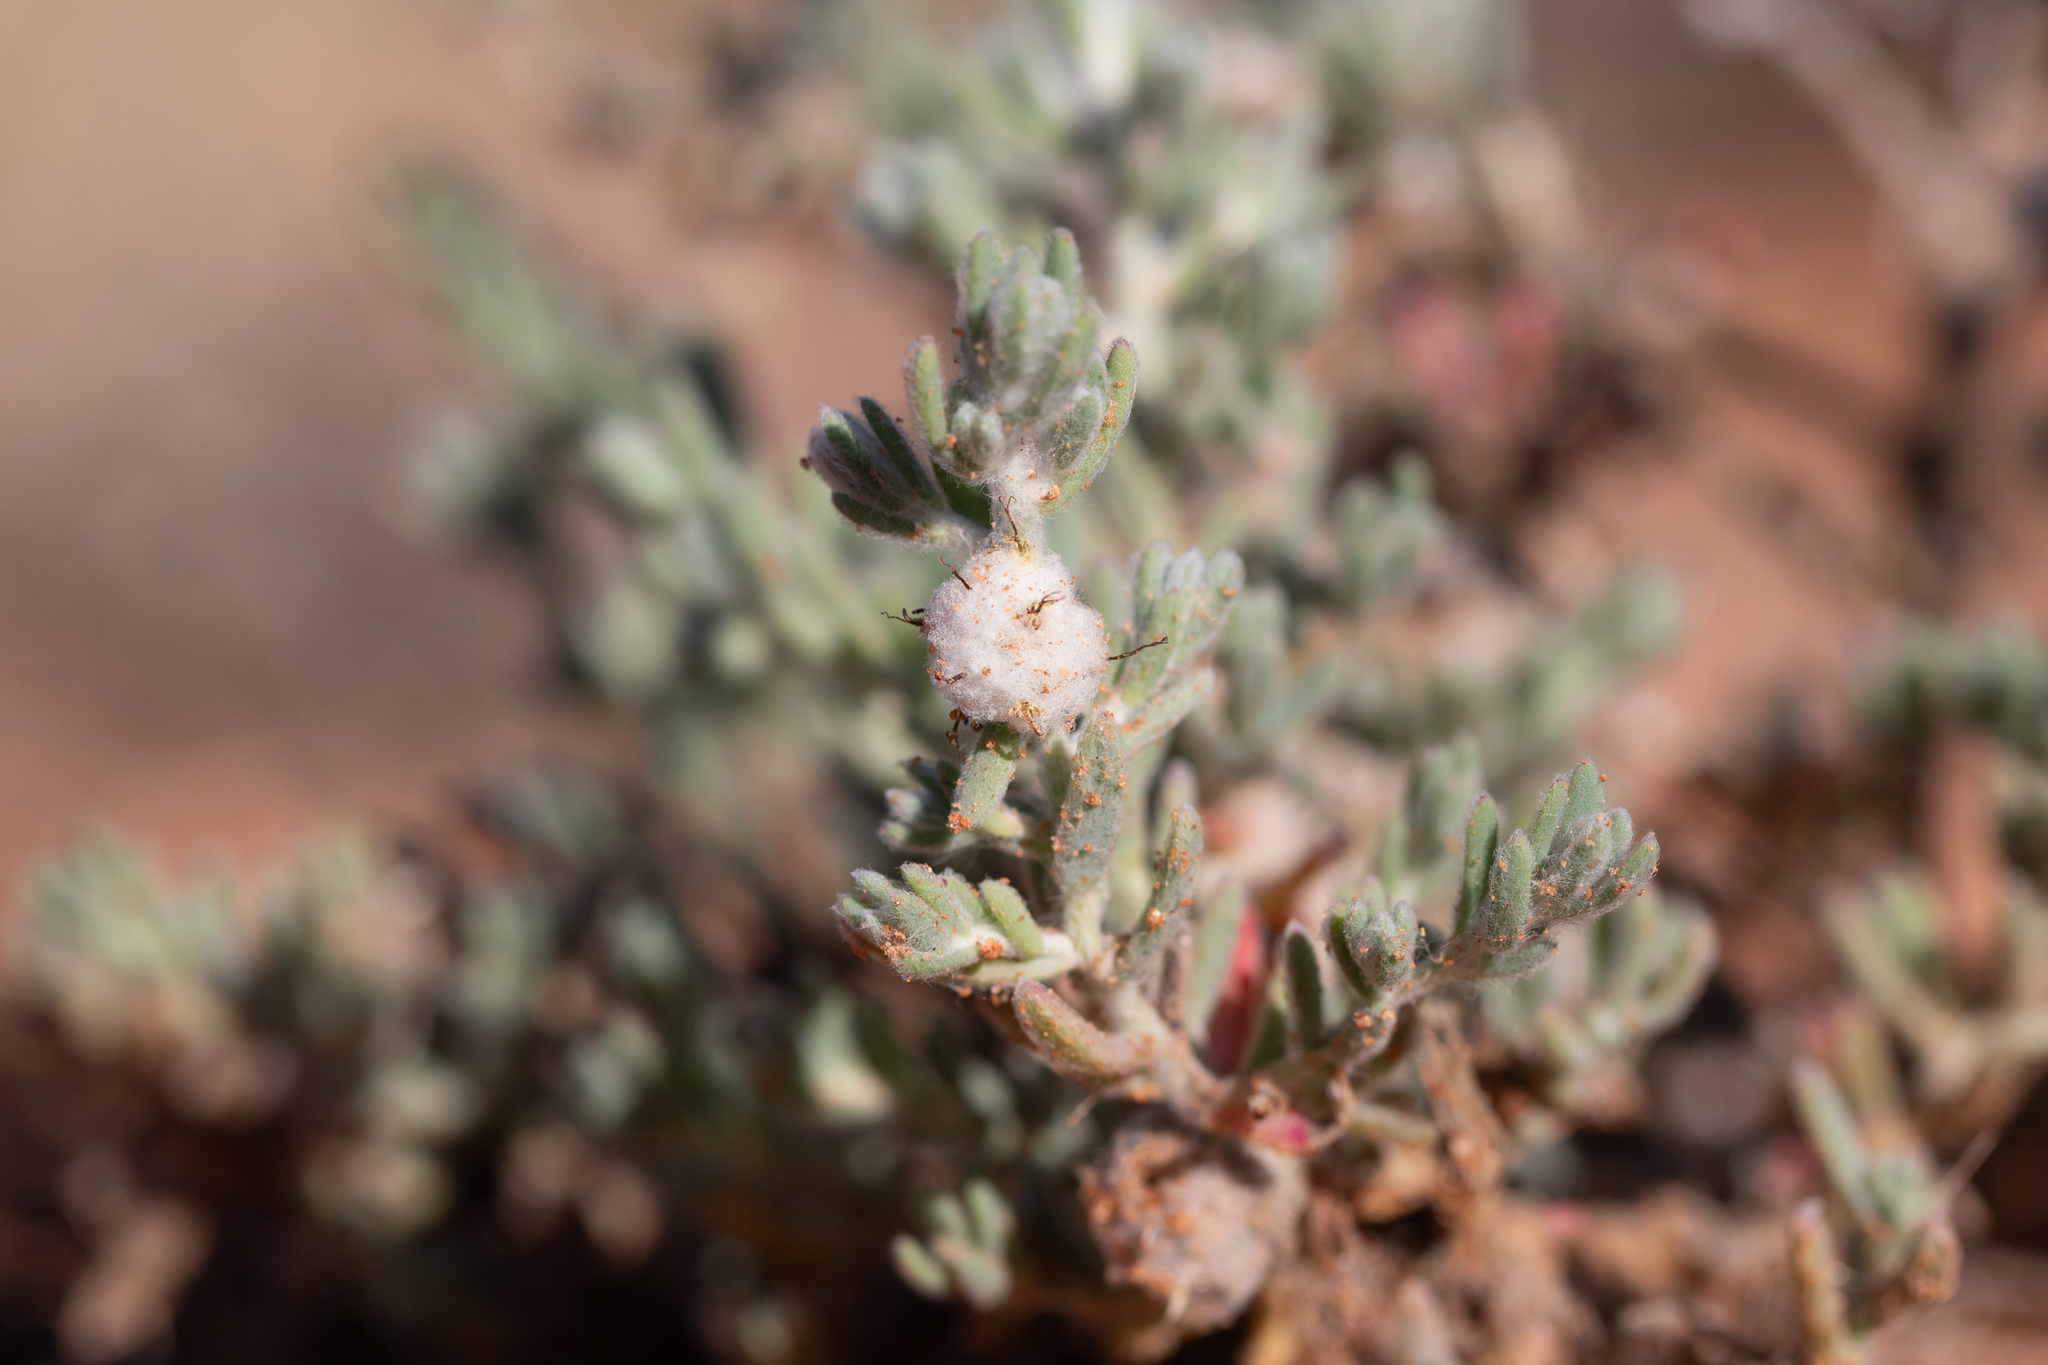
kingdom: Plantae
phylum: Tracheophyta
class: Magnoliopsida
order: Caryophyllales
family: Amaranthaceae
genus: Dissocarpus
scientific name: Dissocarpus paradoxus
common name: Bur-saltbush
